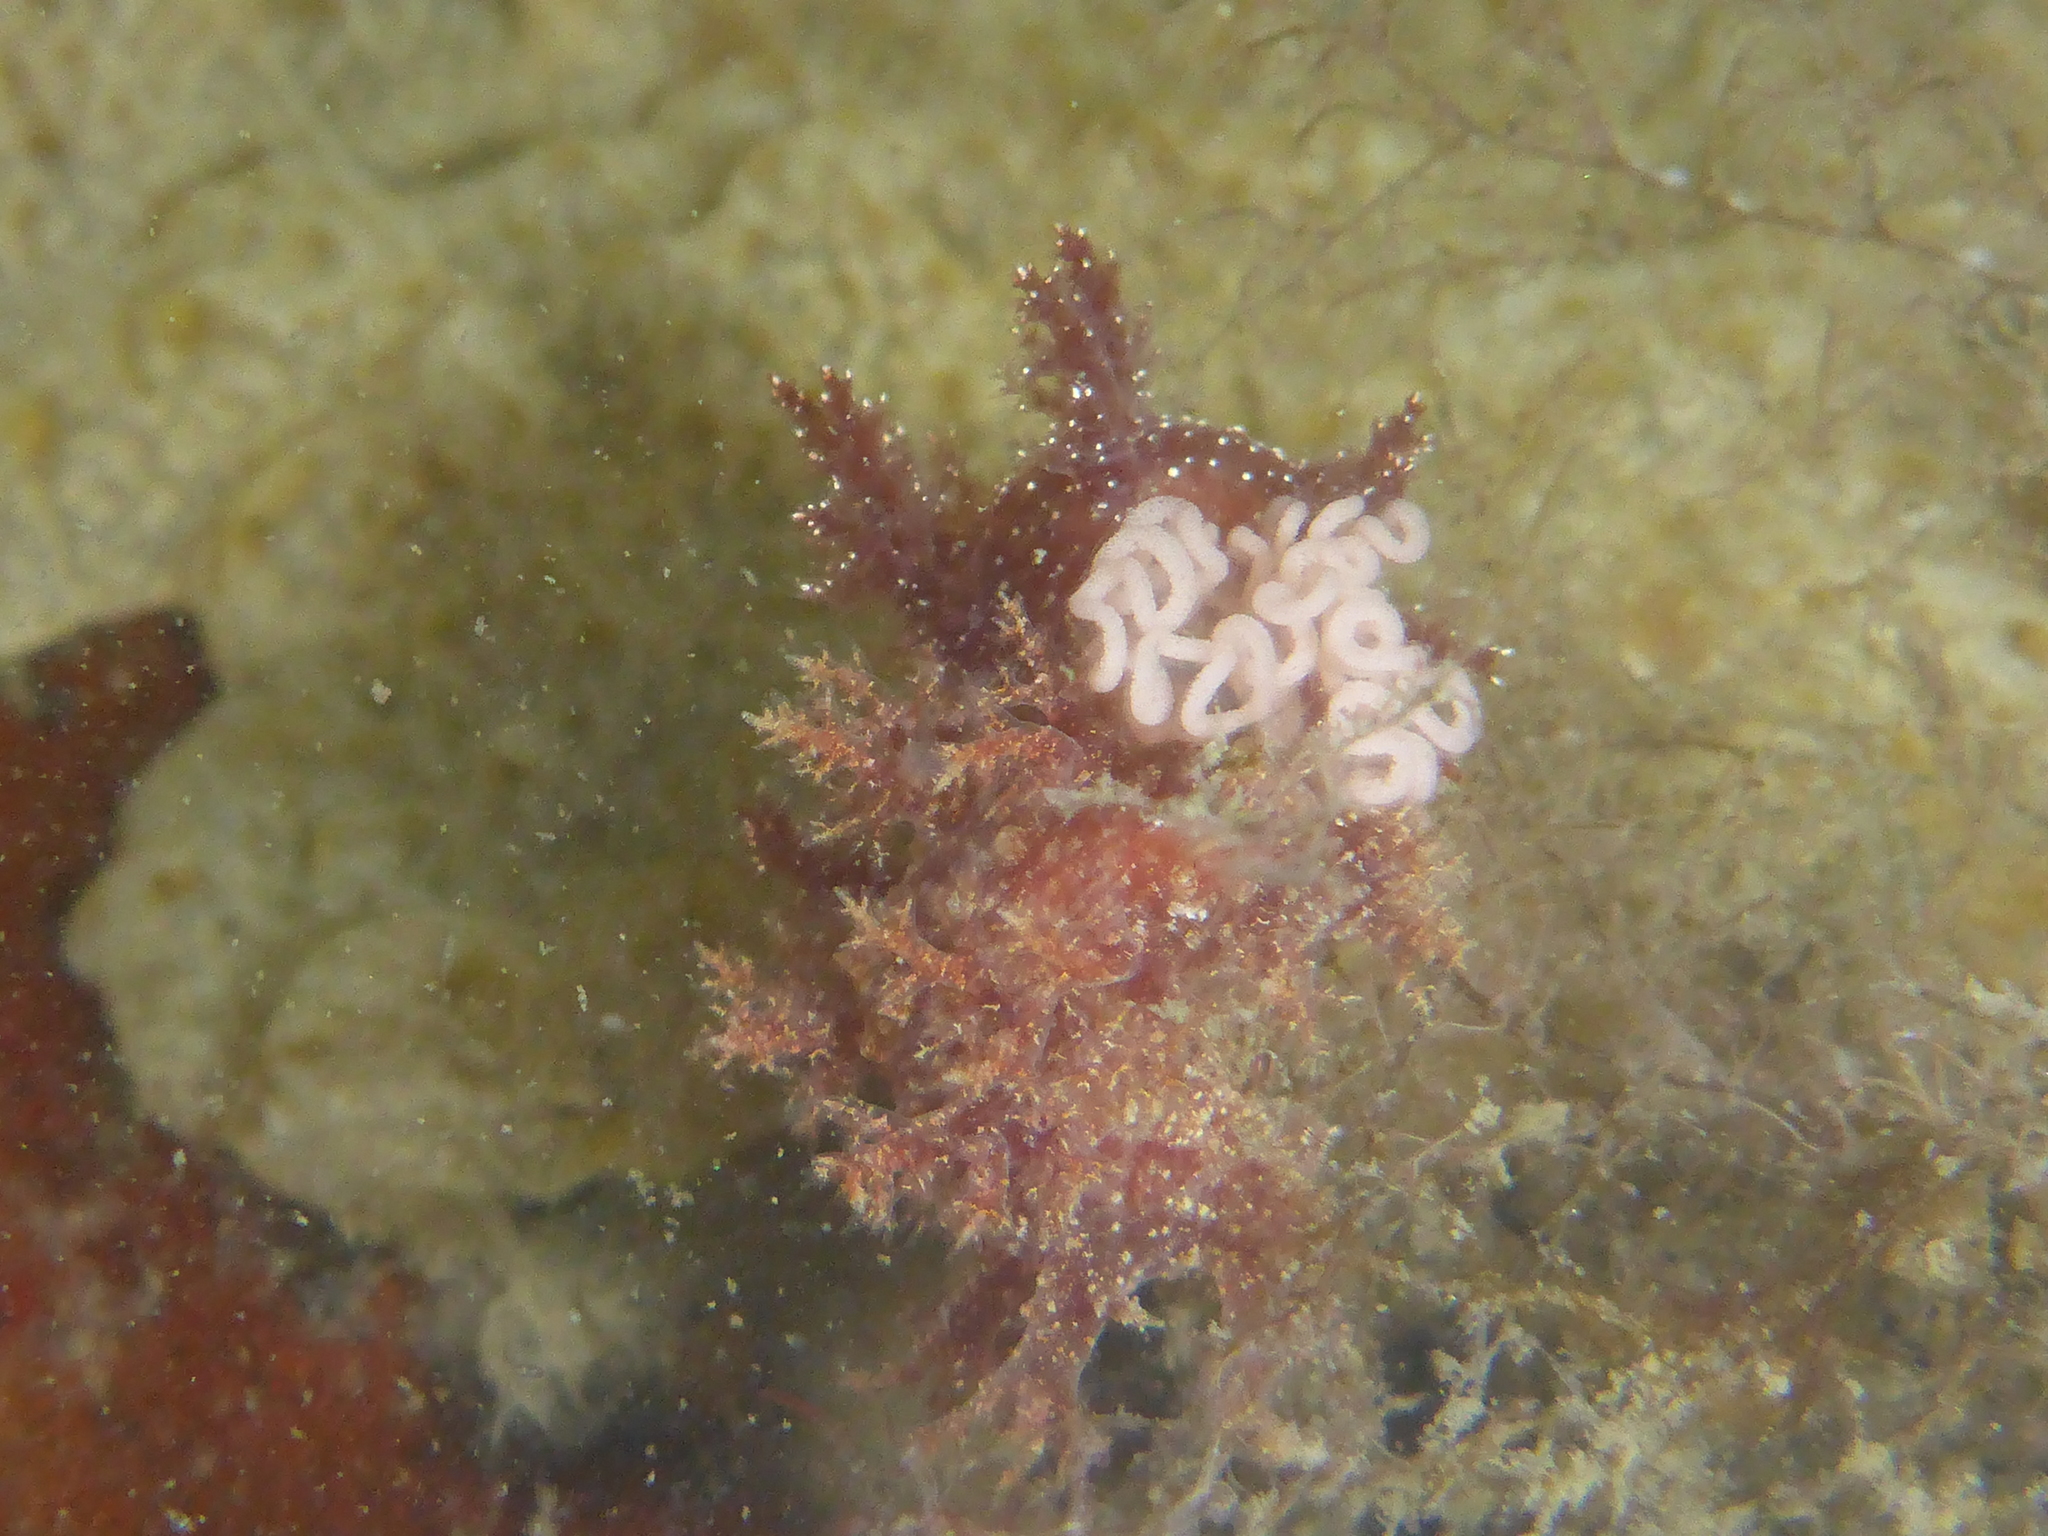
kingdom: Animalia
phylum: Mollusca
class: Gastropoda
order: Nudibranchia
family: Dendronotidae
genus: Dendronotus
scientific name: Dendronotus venustus
